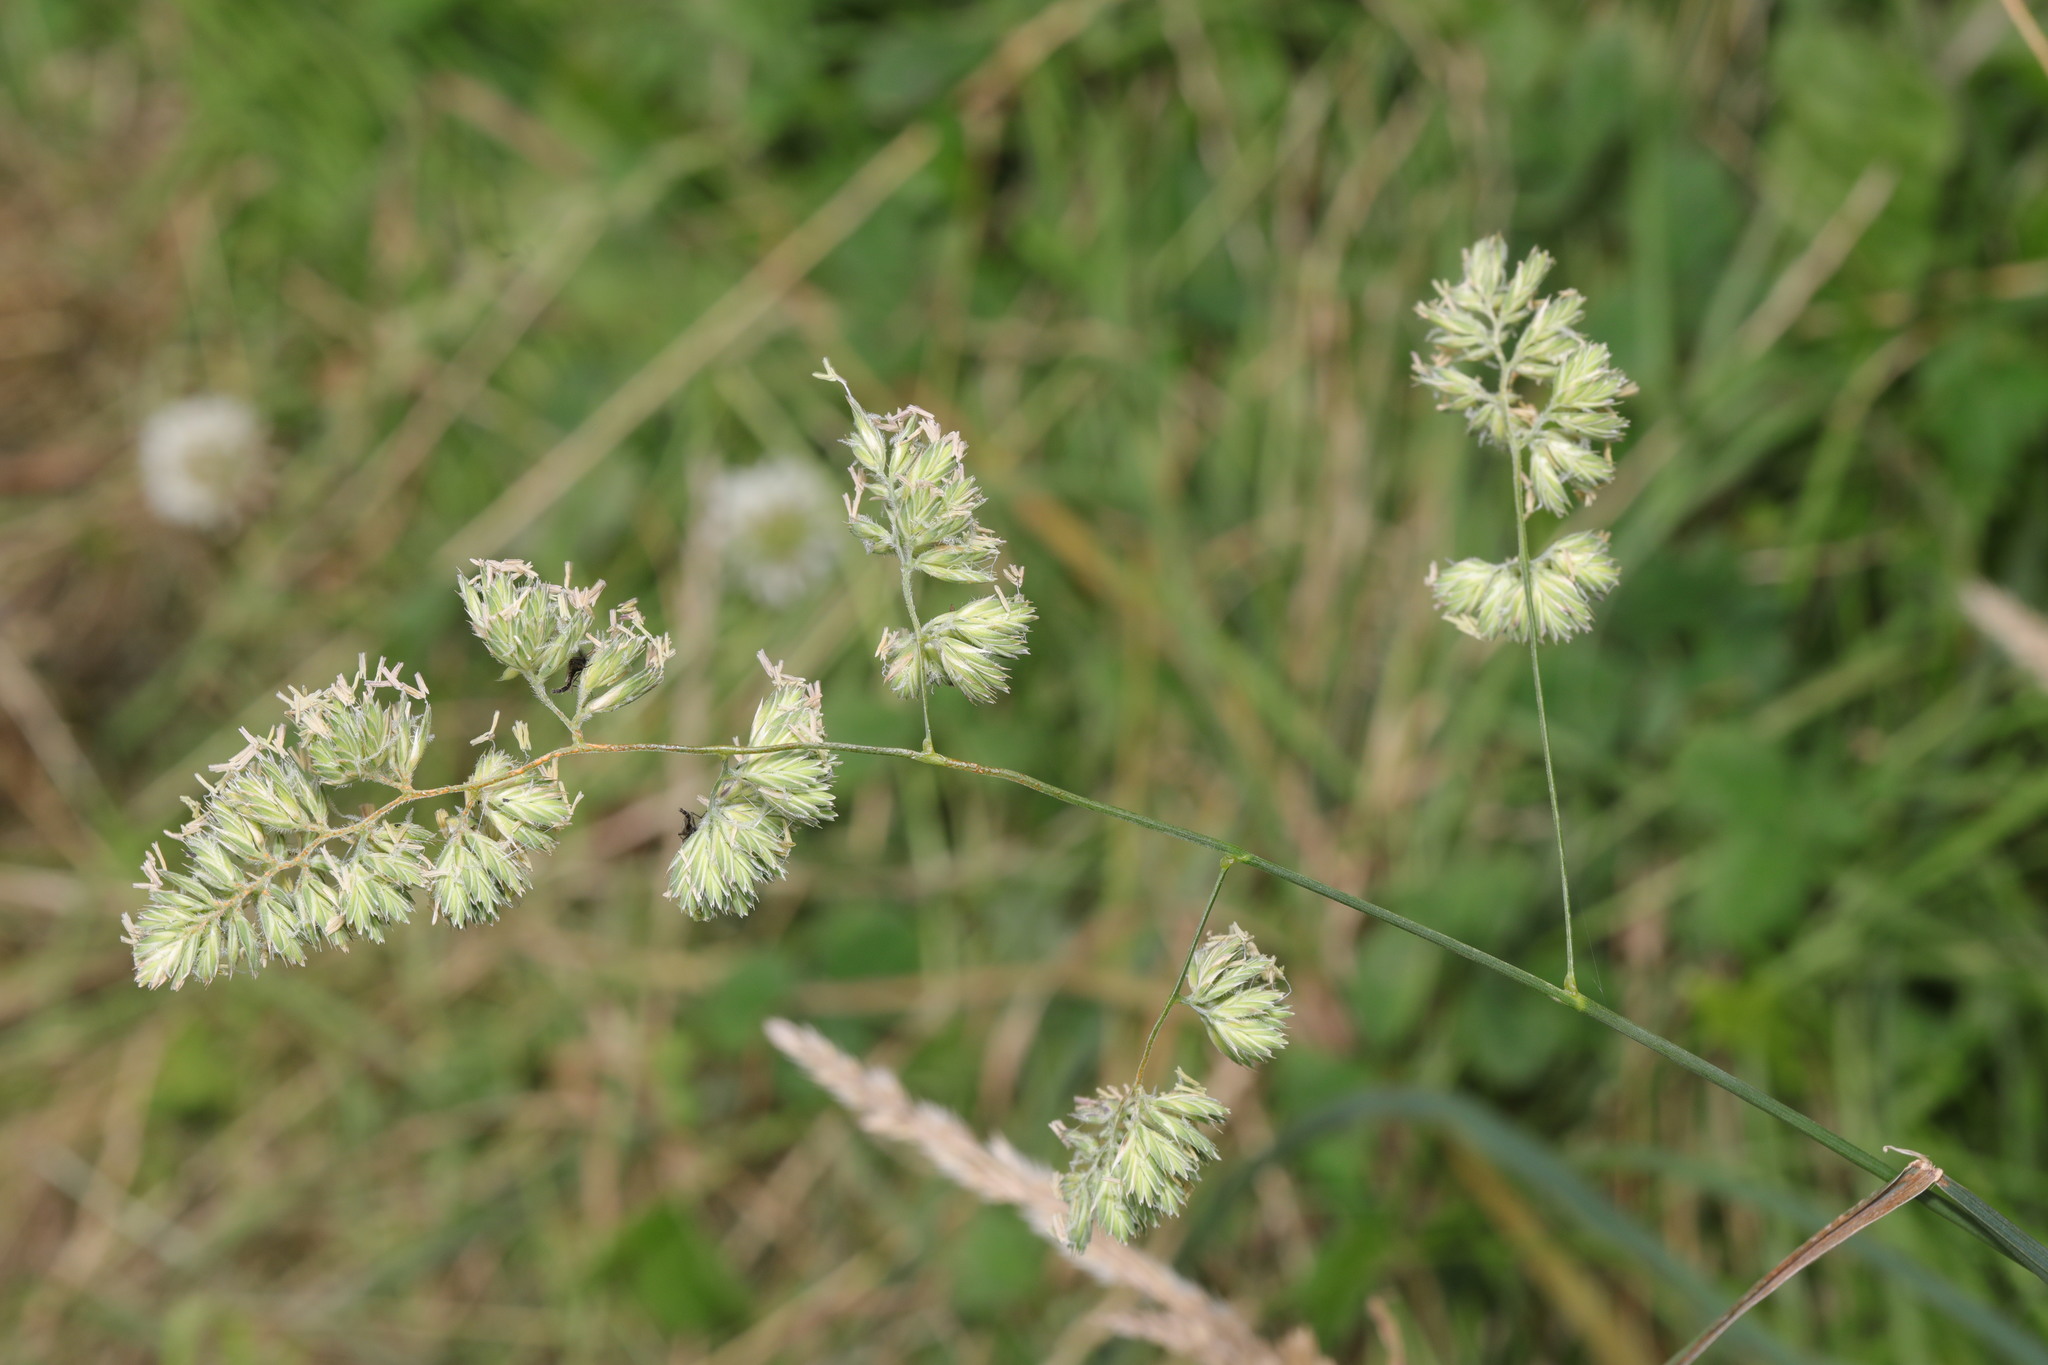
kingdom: Plantae
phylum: Tracheophyta
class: Liliopsida
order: Poales
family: Poaceae
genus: Dactylis
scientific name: Dactylis glomerata
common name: Orchardgrass
